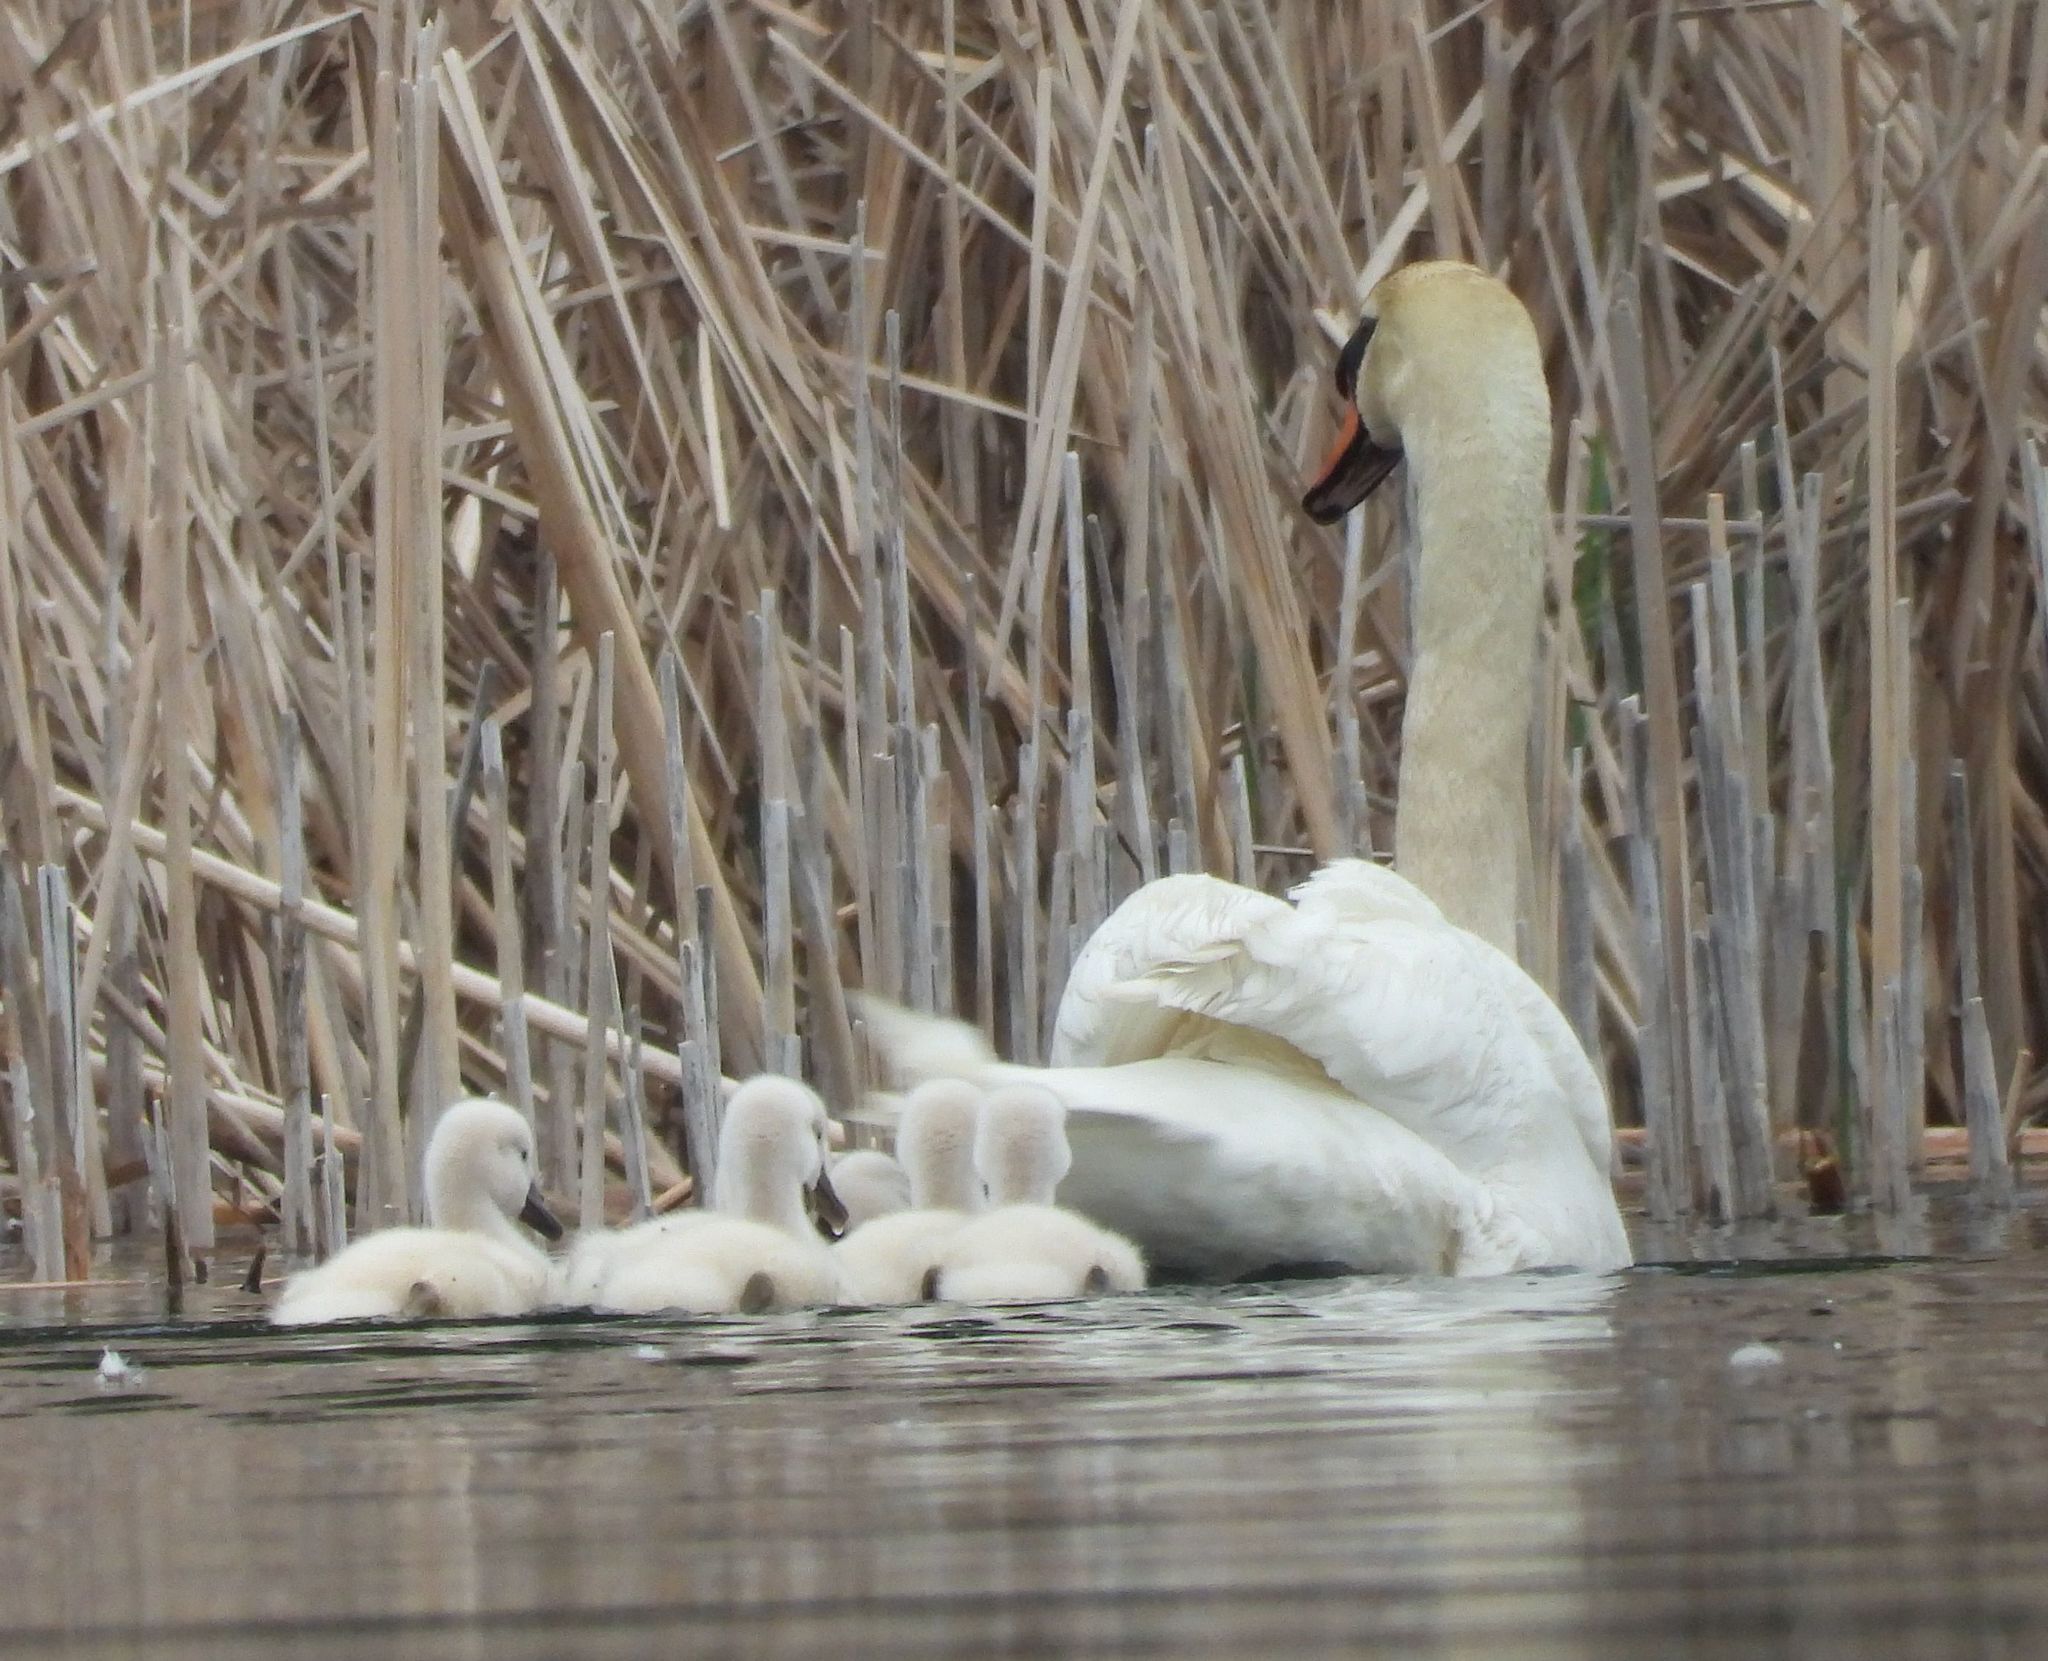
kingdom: Animalia
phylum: Chordata
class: Aves
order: Anseriformes
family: Anatidae
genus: Cygnus
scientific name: Cygnus olor
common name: Mute swan
